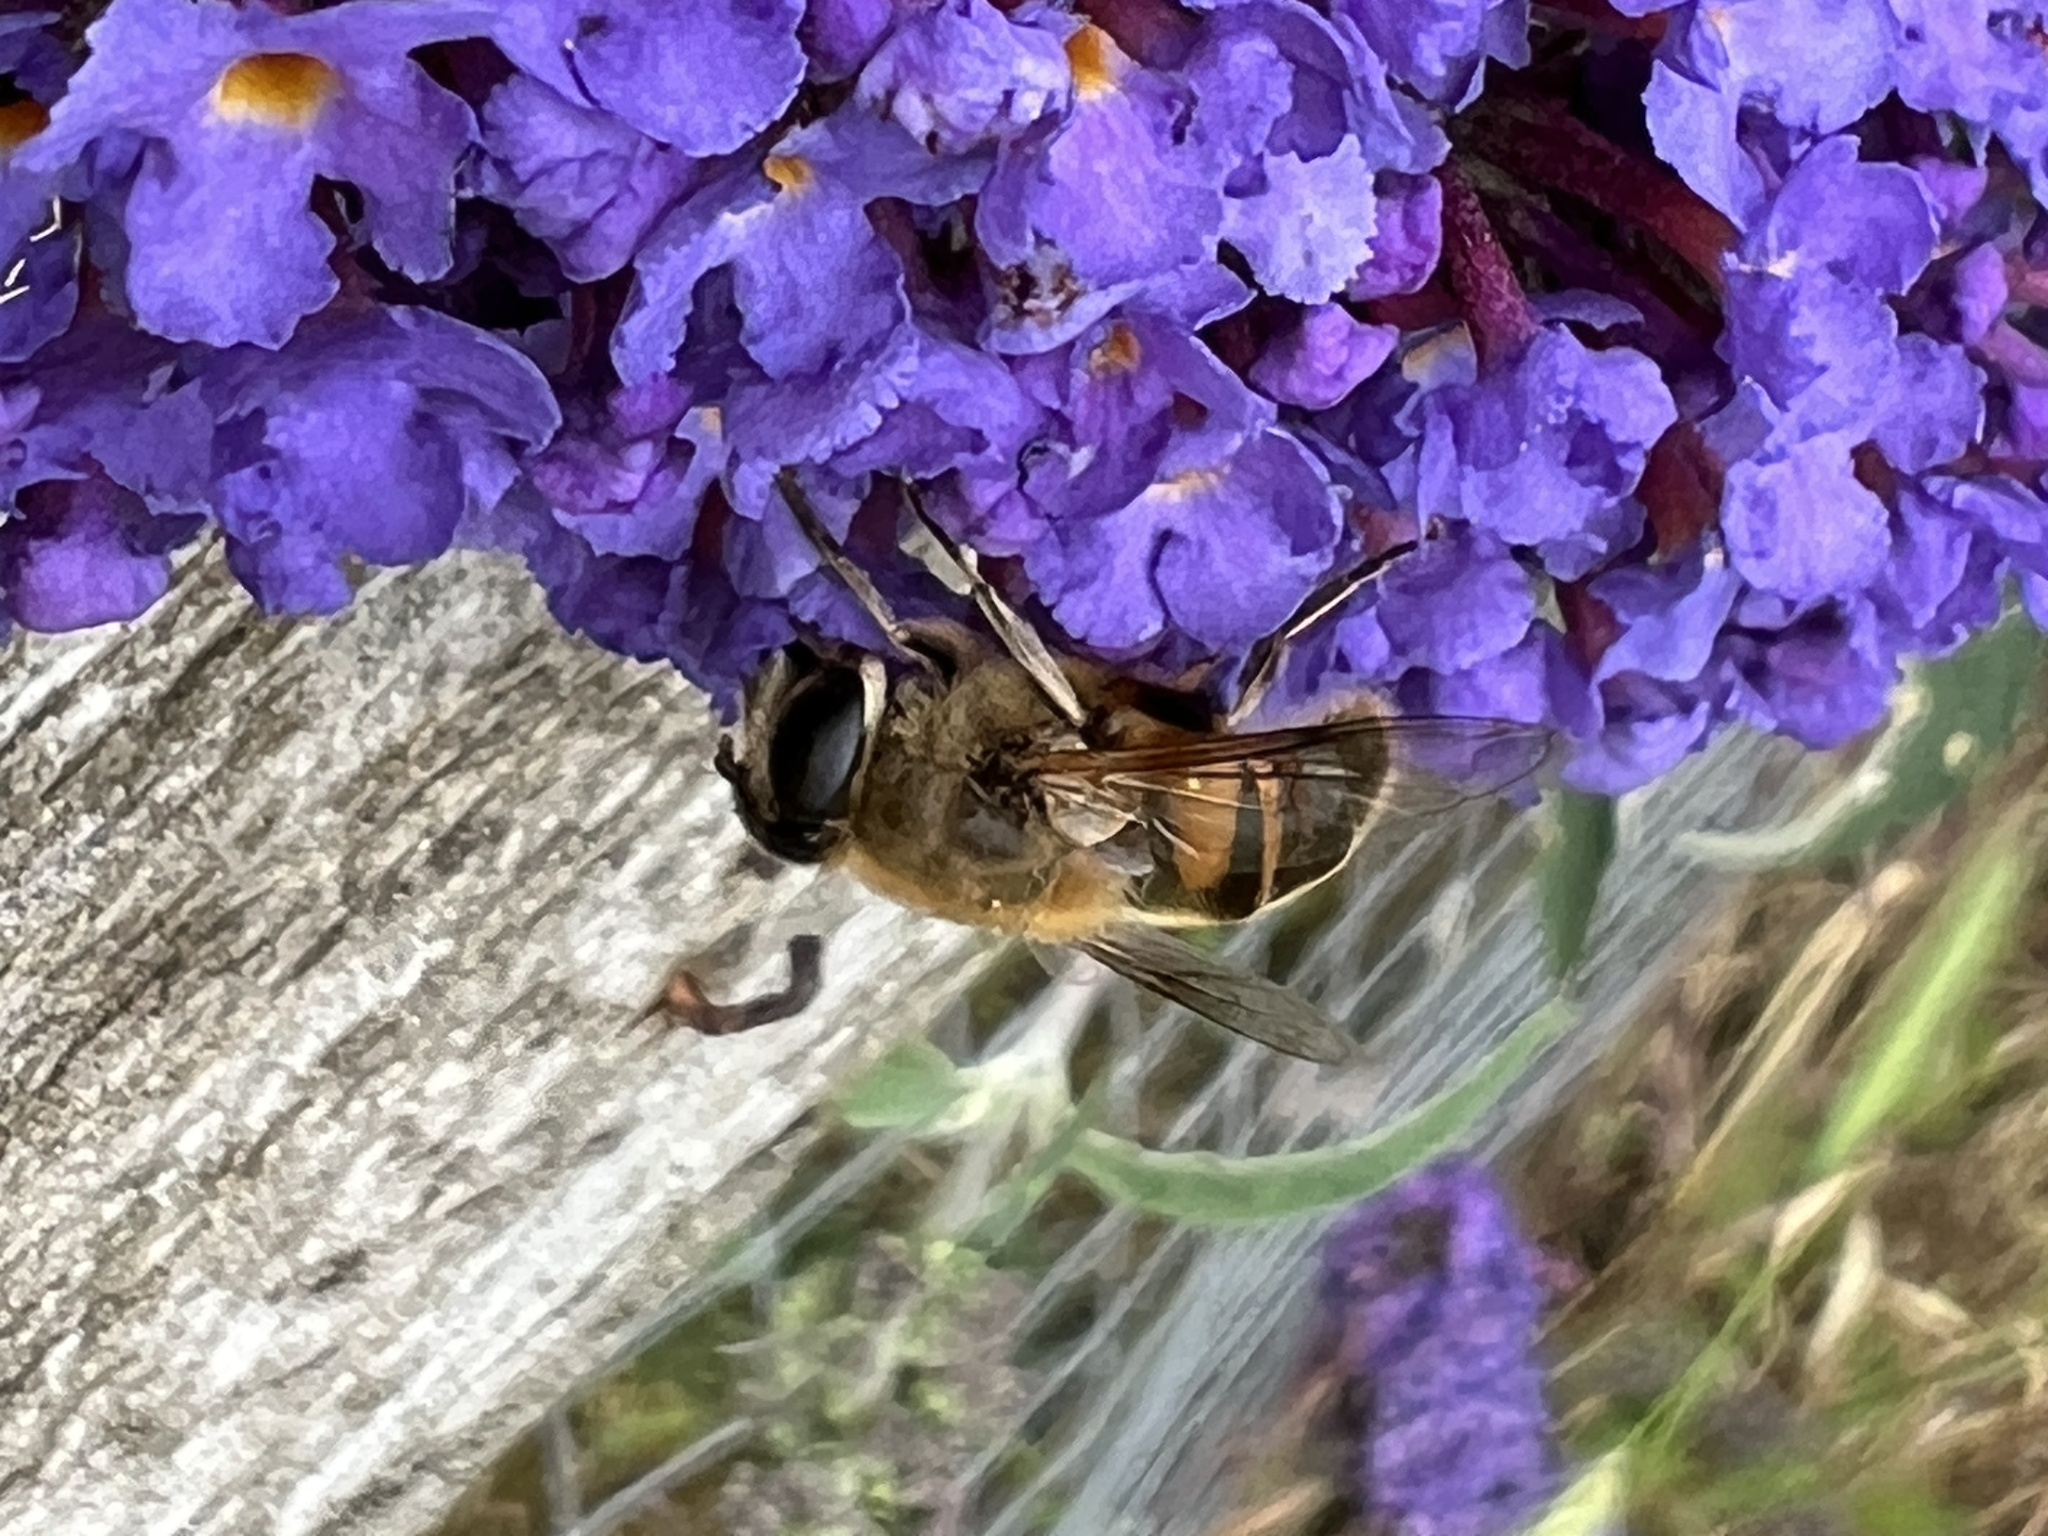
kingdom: Animalia
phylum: Arthropoda
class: Insecta
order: Diptera
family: Syrphidae
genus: Eristalis
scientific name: Eristalis tenax
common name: Drone fly
